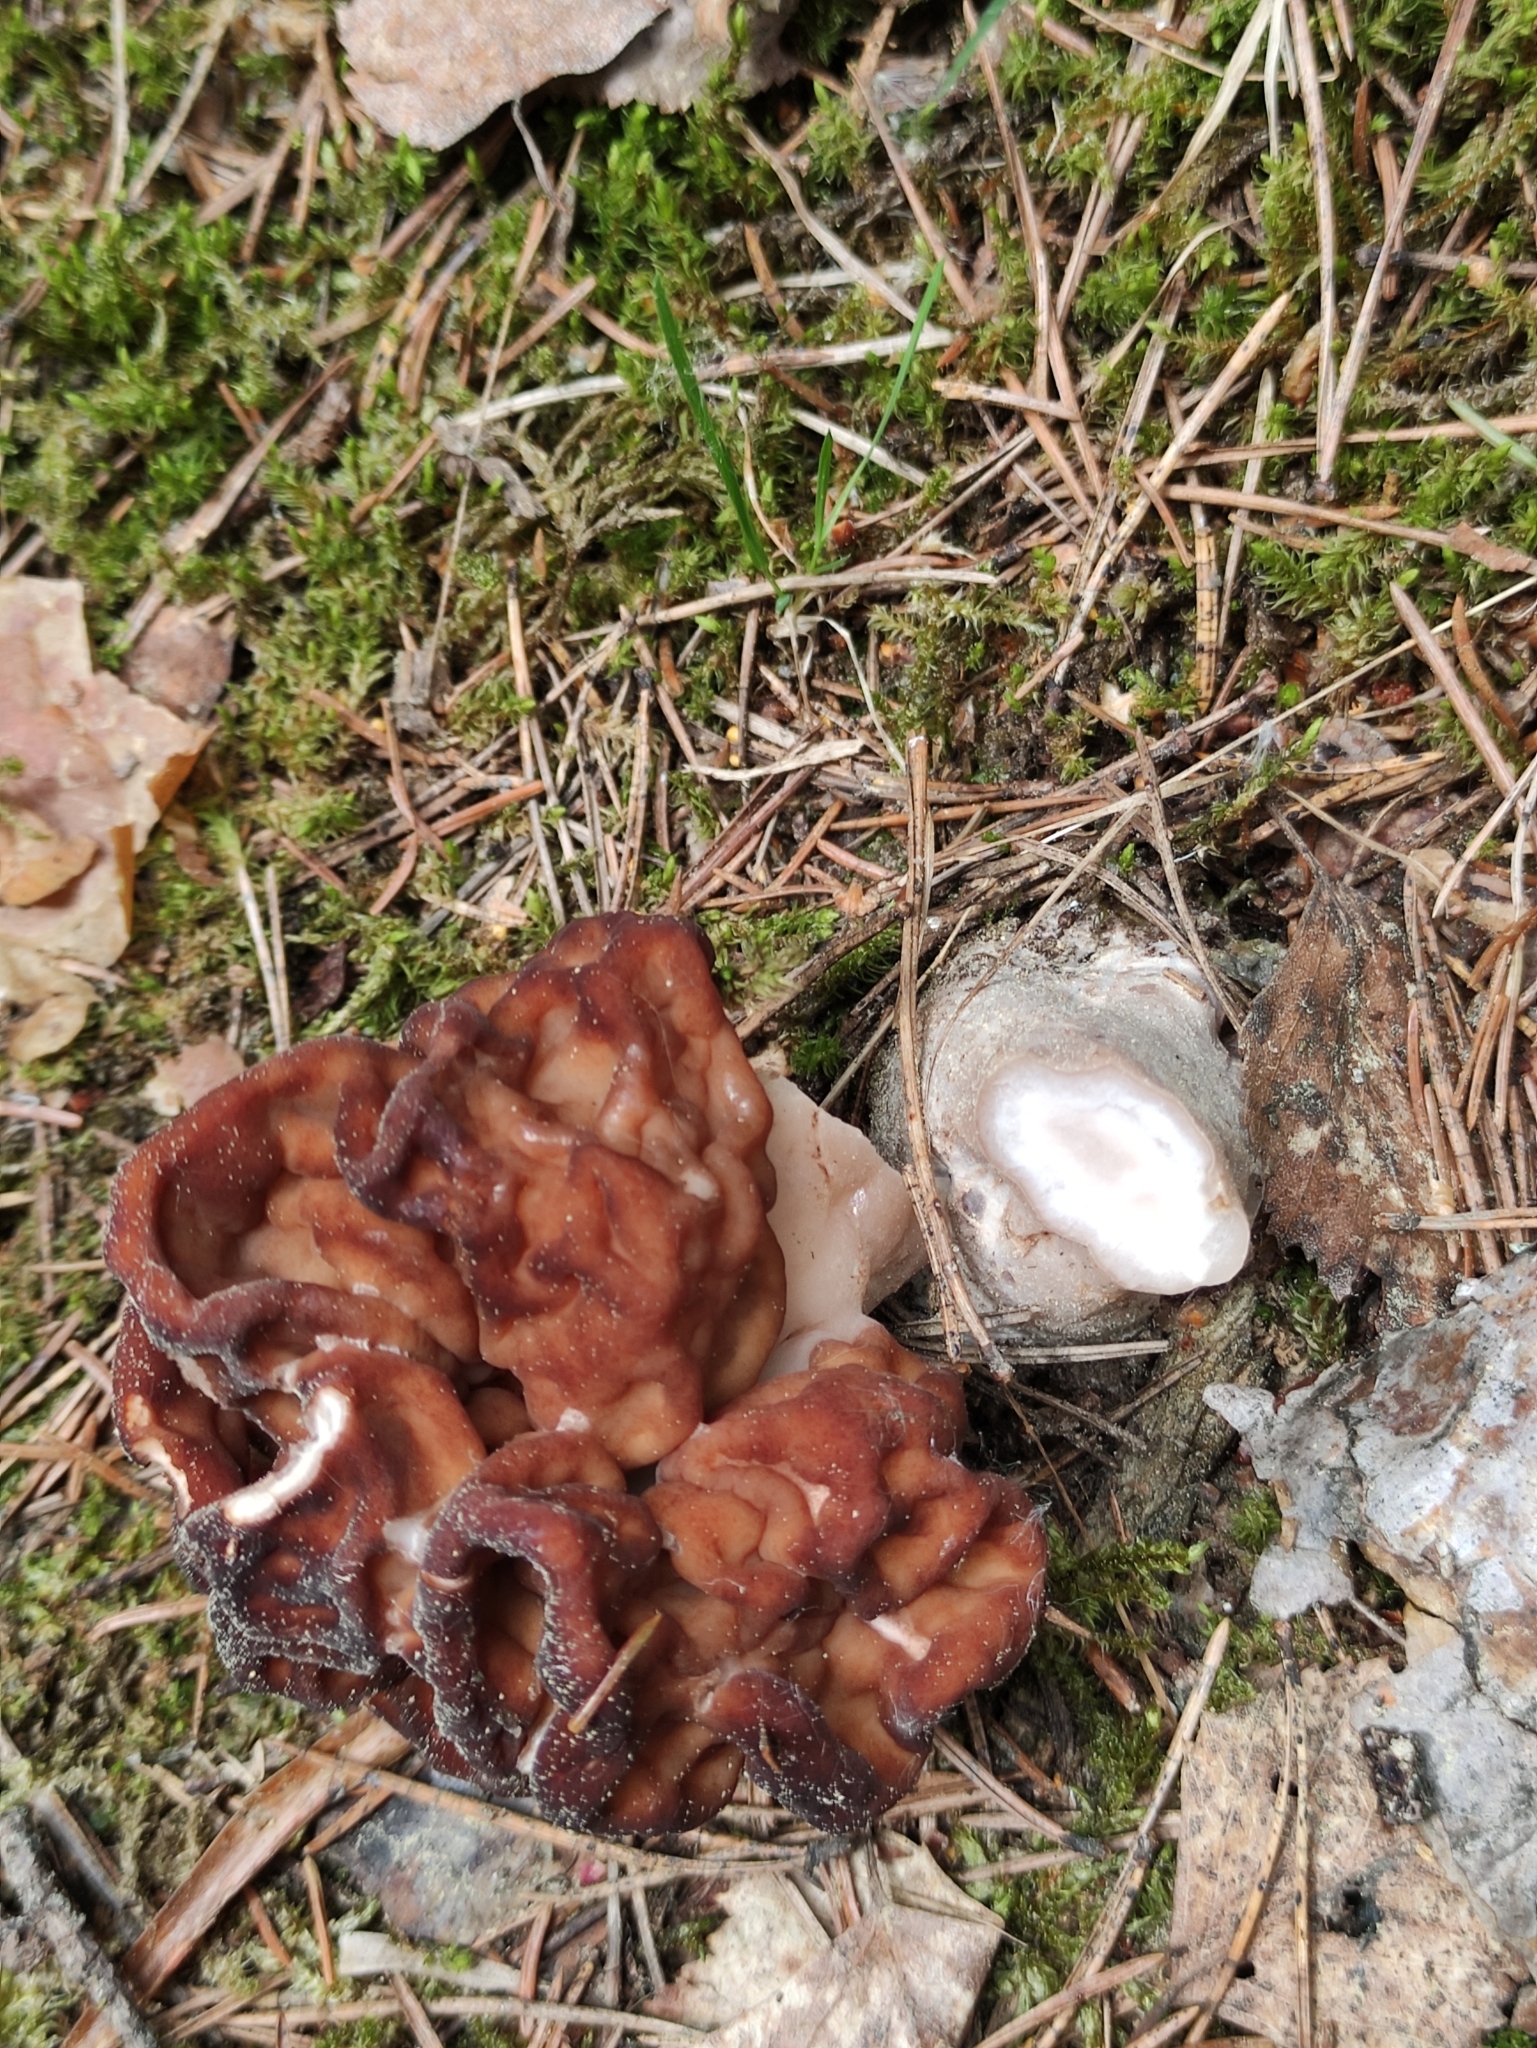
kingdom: Fungi
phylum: Ascomycota
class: Pezizomycetes
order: Pezizales
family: Discinaceae
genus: Gyromitra
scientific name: Gyromitra esculenta
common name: False morel
